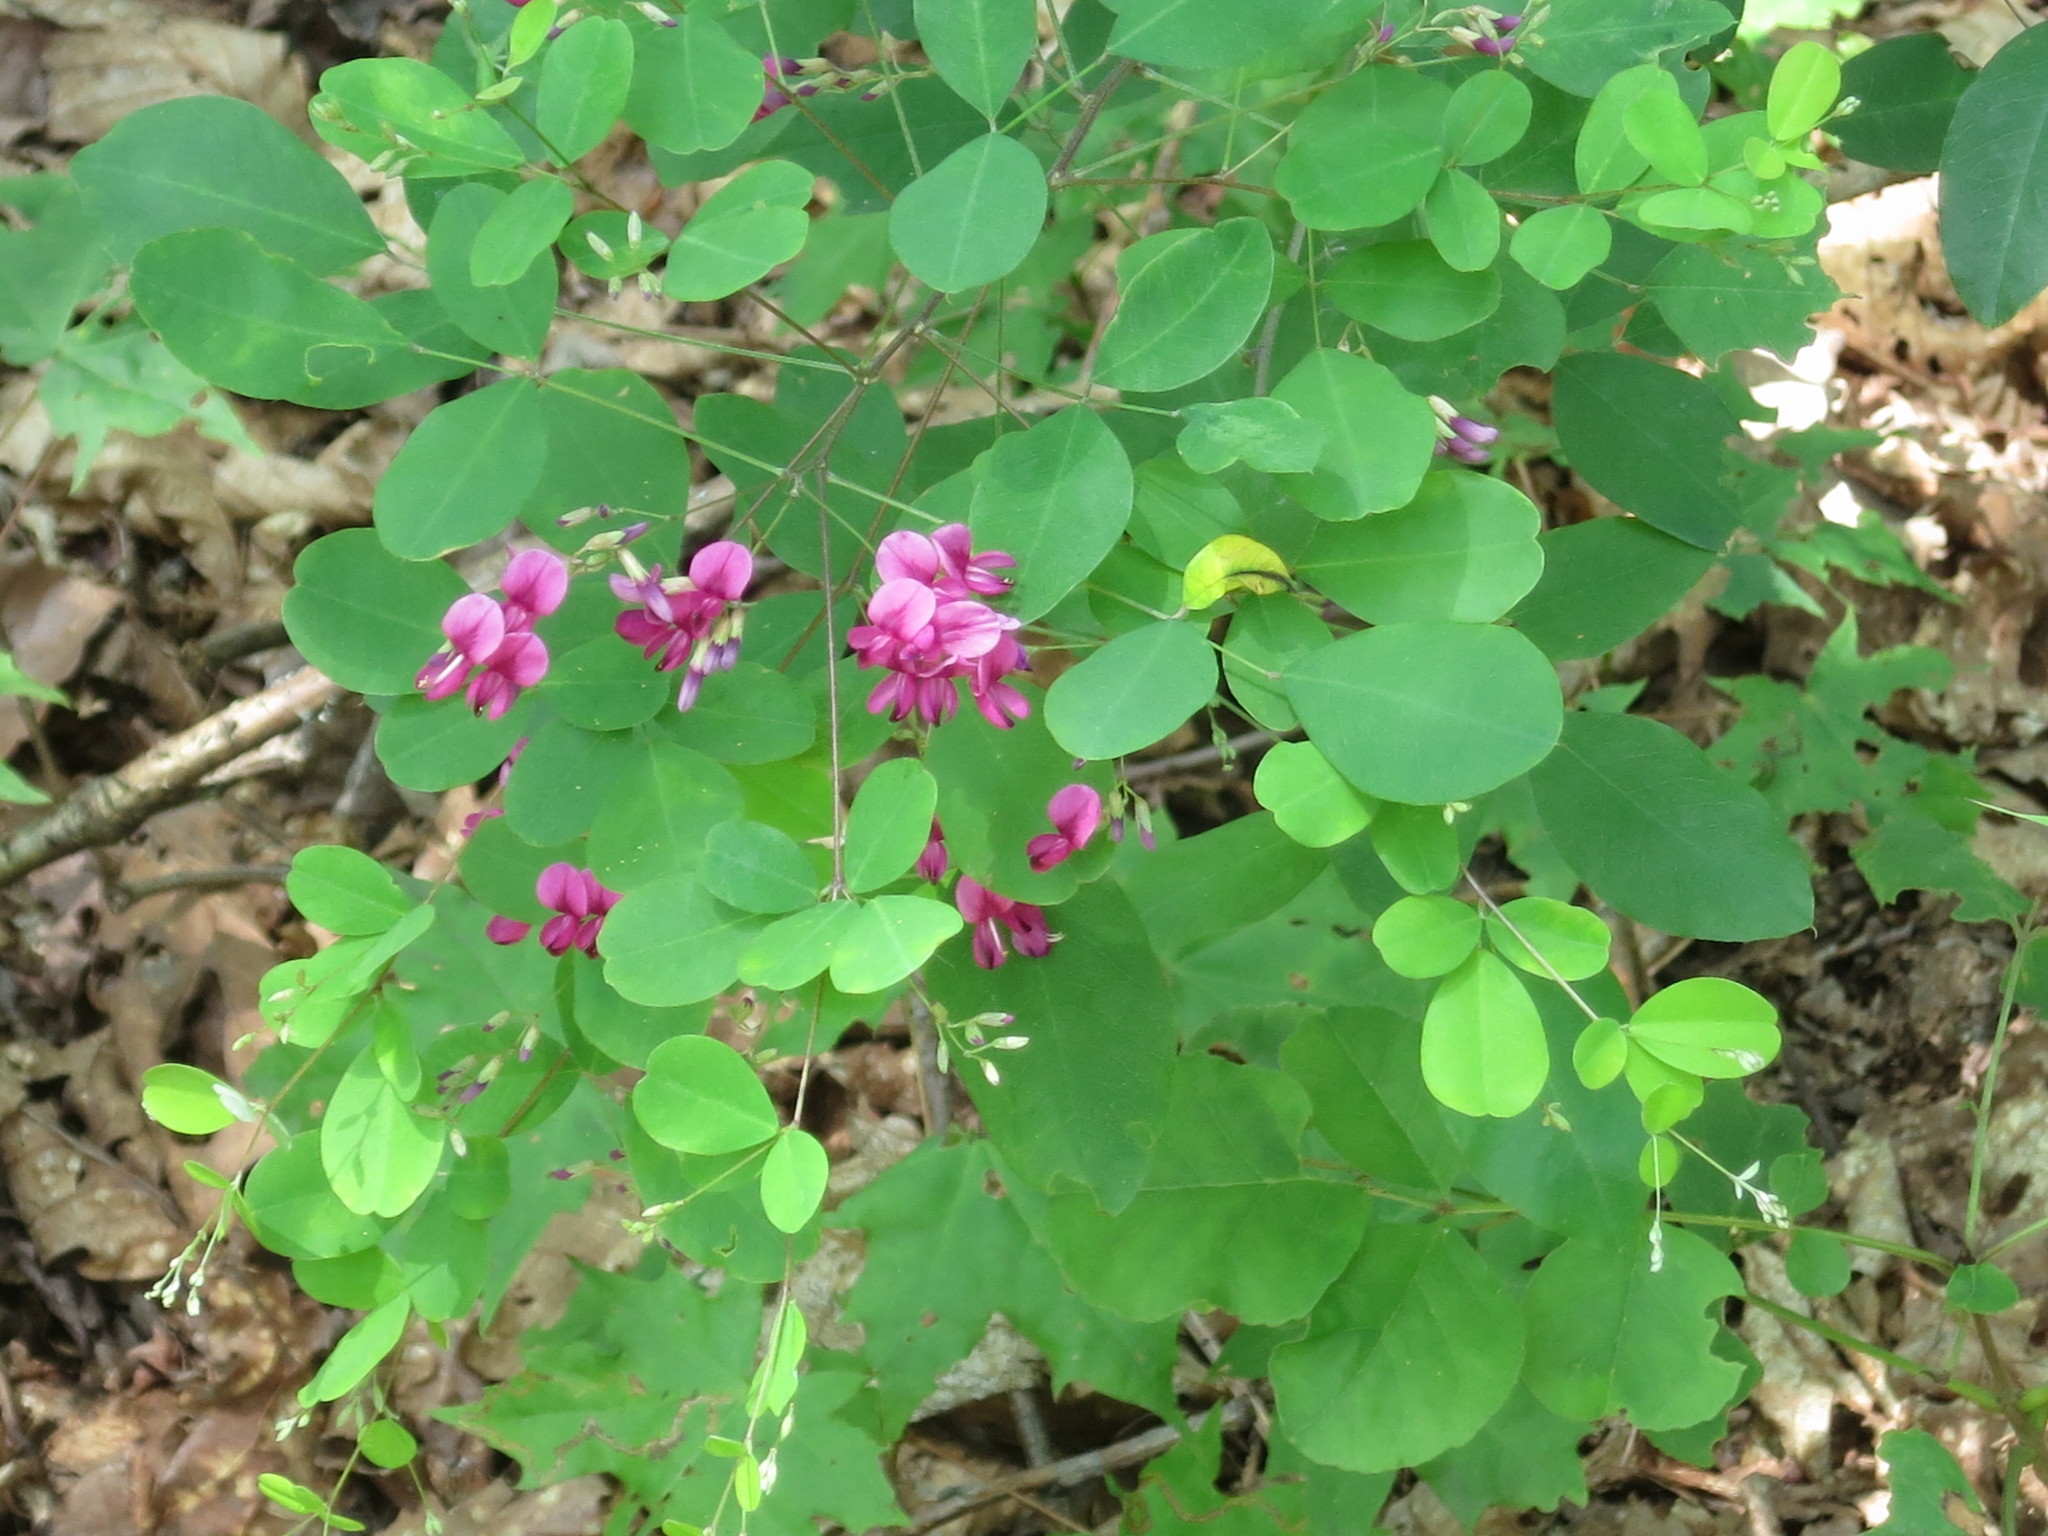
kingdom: Plantae
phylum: Tracheophyta
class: Magnoliopsida
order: Fabales
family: Fabaceae
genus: Lespedeza
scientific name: Lespedeza bicolor
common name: Shrub lespedeza
